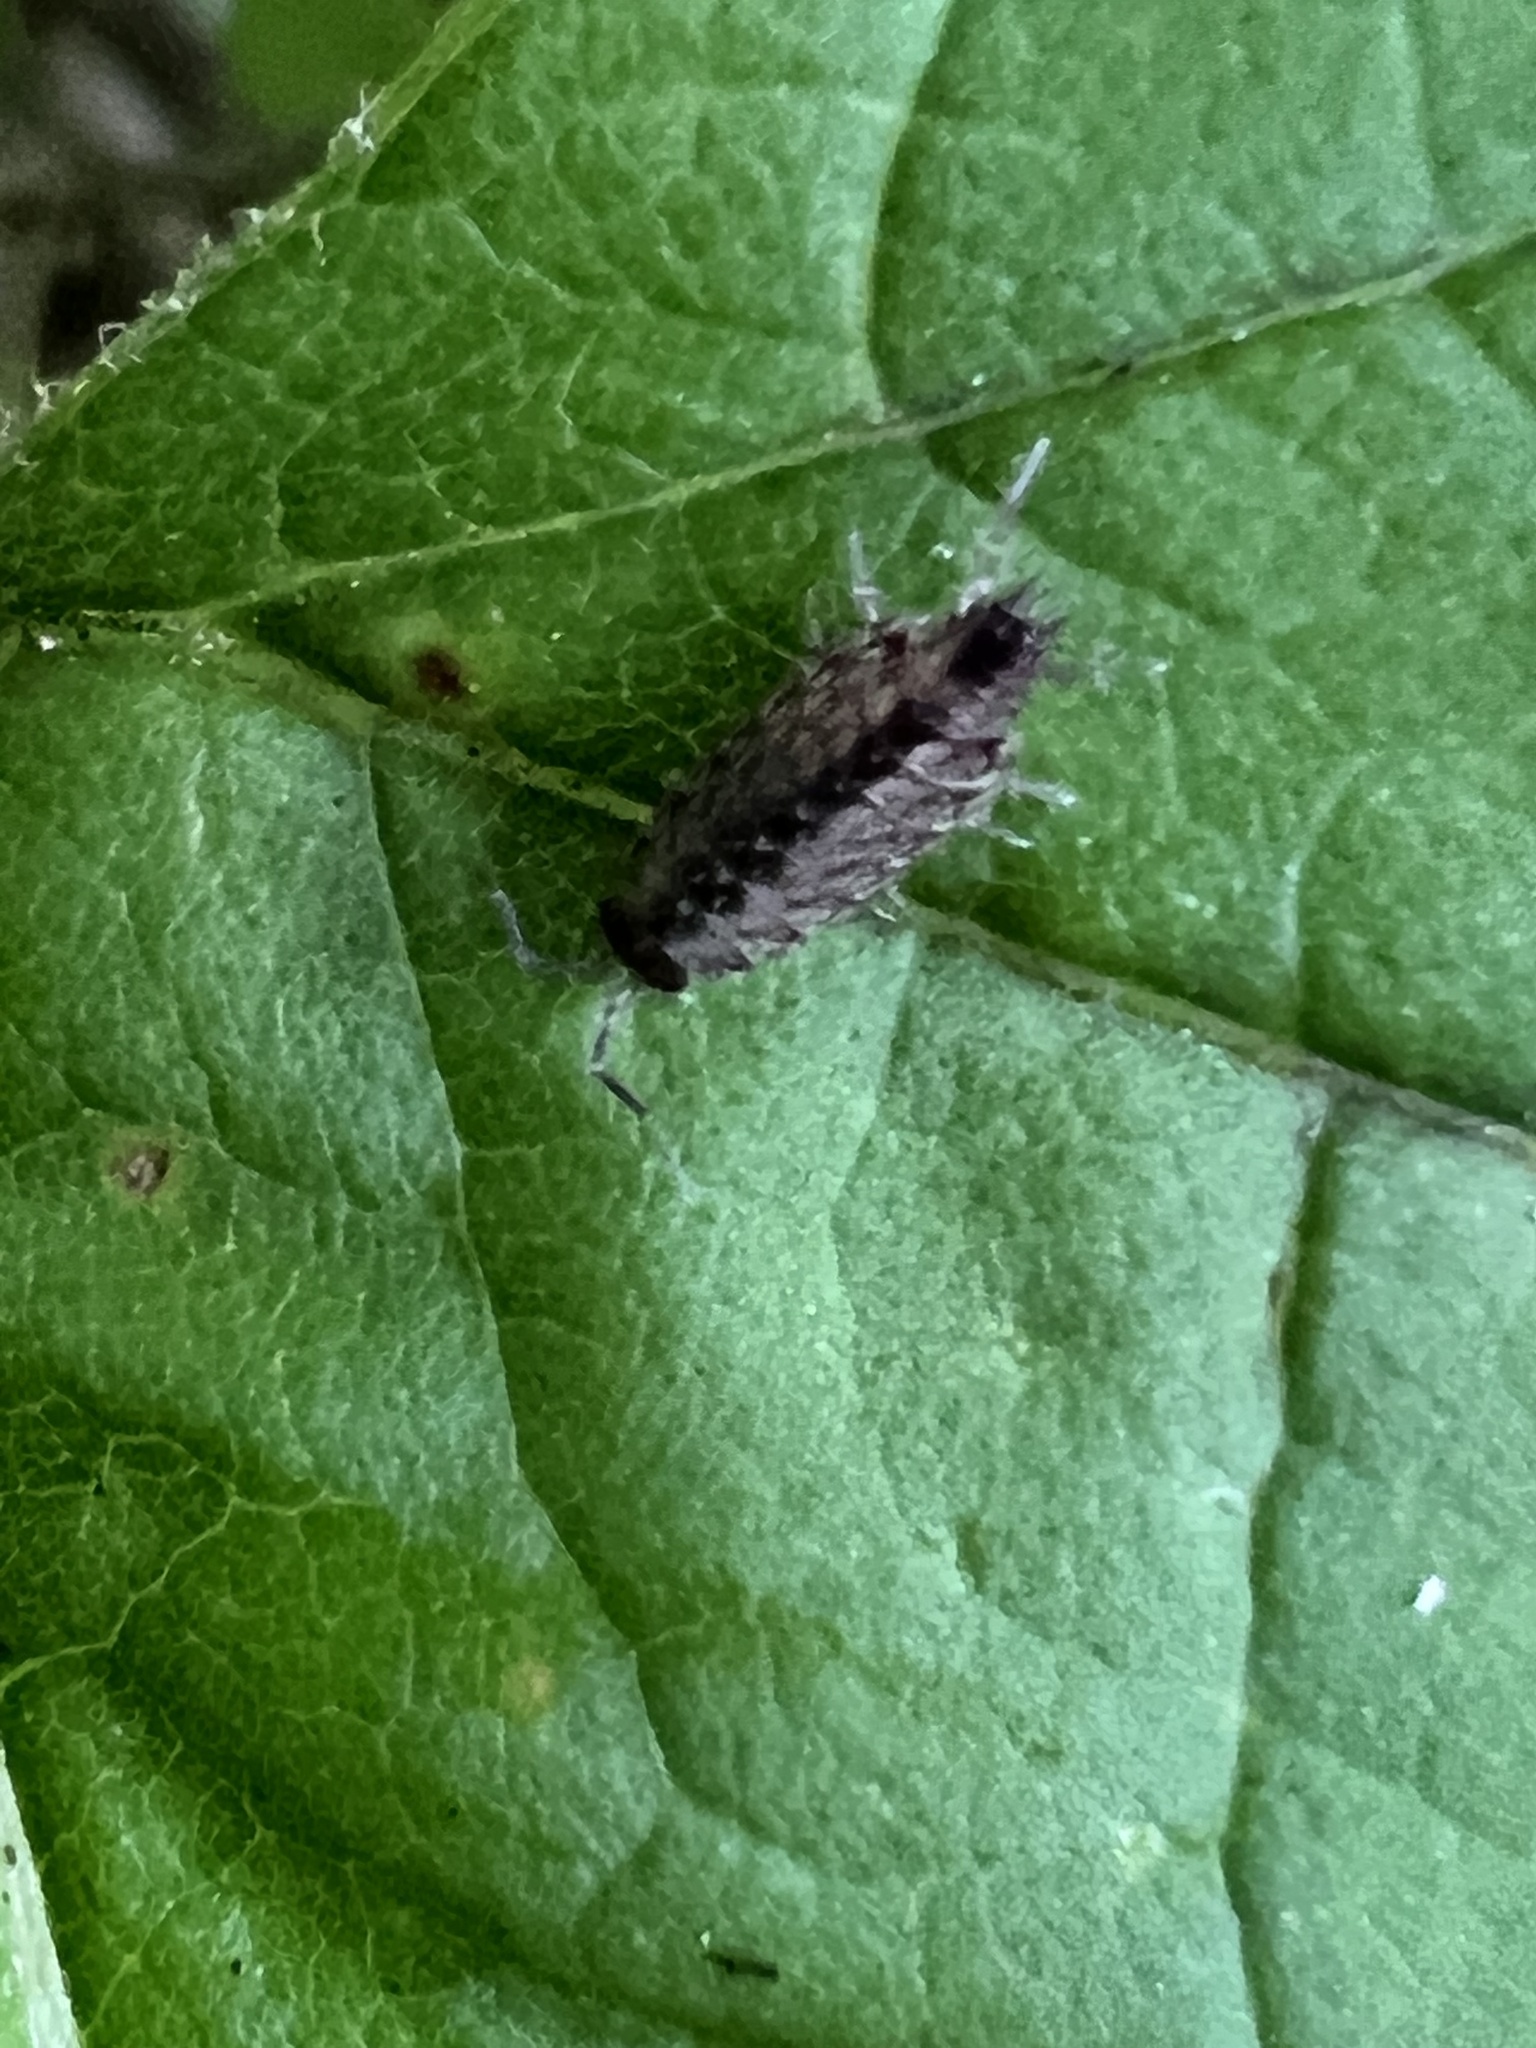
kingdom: Animalia
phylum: Arthropoda
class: Malacostraca
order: Isopoda
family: Philosciidae
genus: Philoscia
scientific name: Philoscia muscorum
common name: Common striped woodlouse
